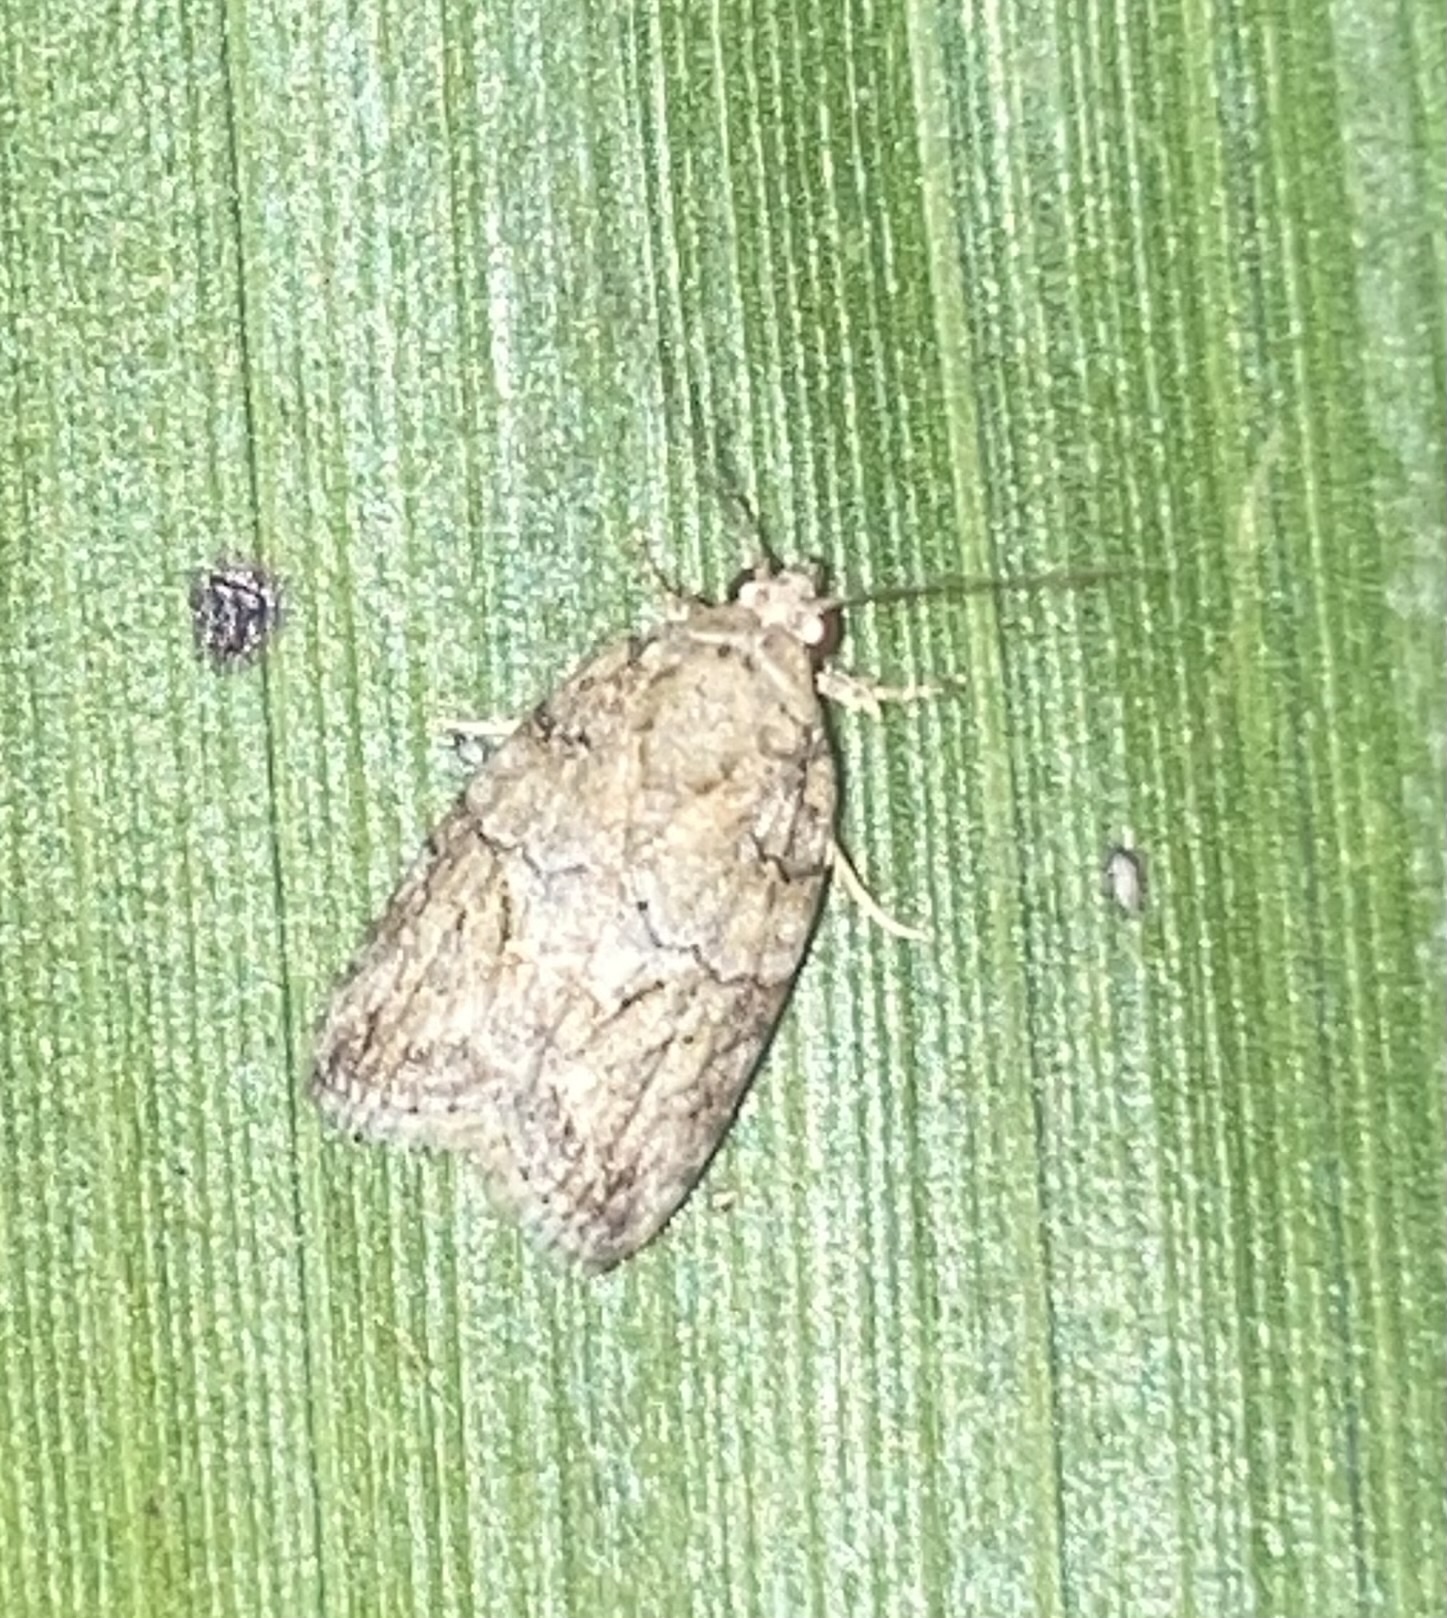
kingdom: Animalia
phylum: Arthropoda
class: Insecta
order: Lepidoptera
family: Nolidae
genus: Garella
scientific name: Garella nilotica
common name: Black-olive caterpillar moth
